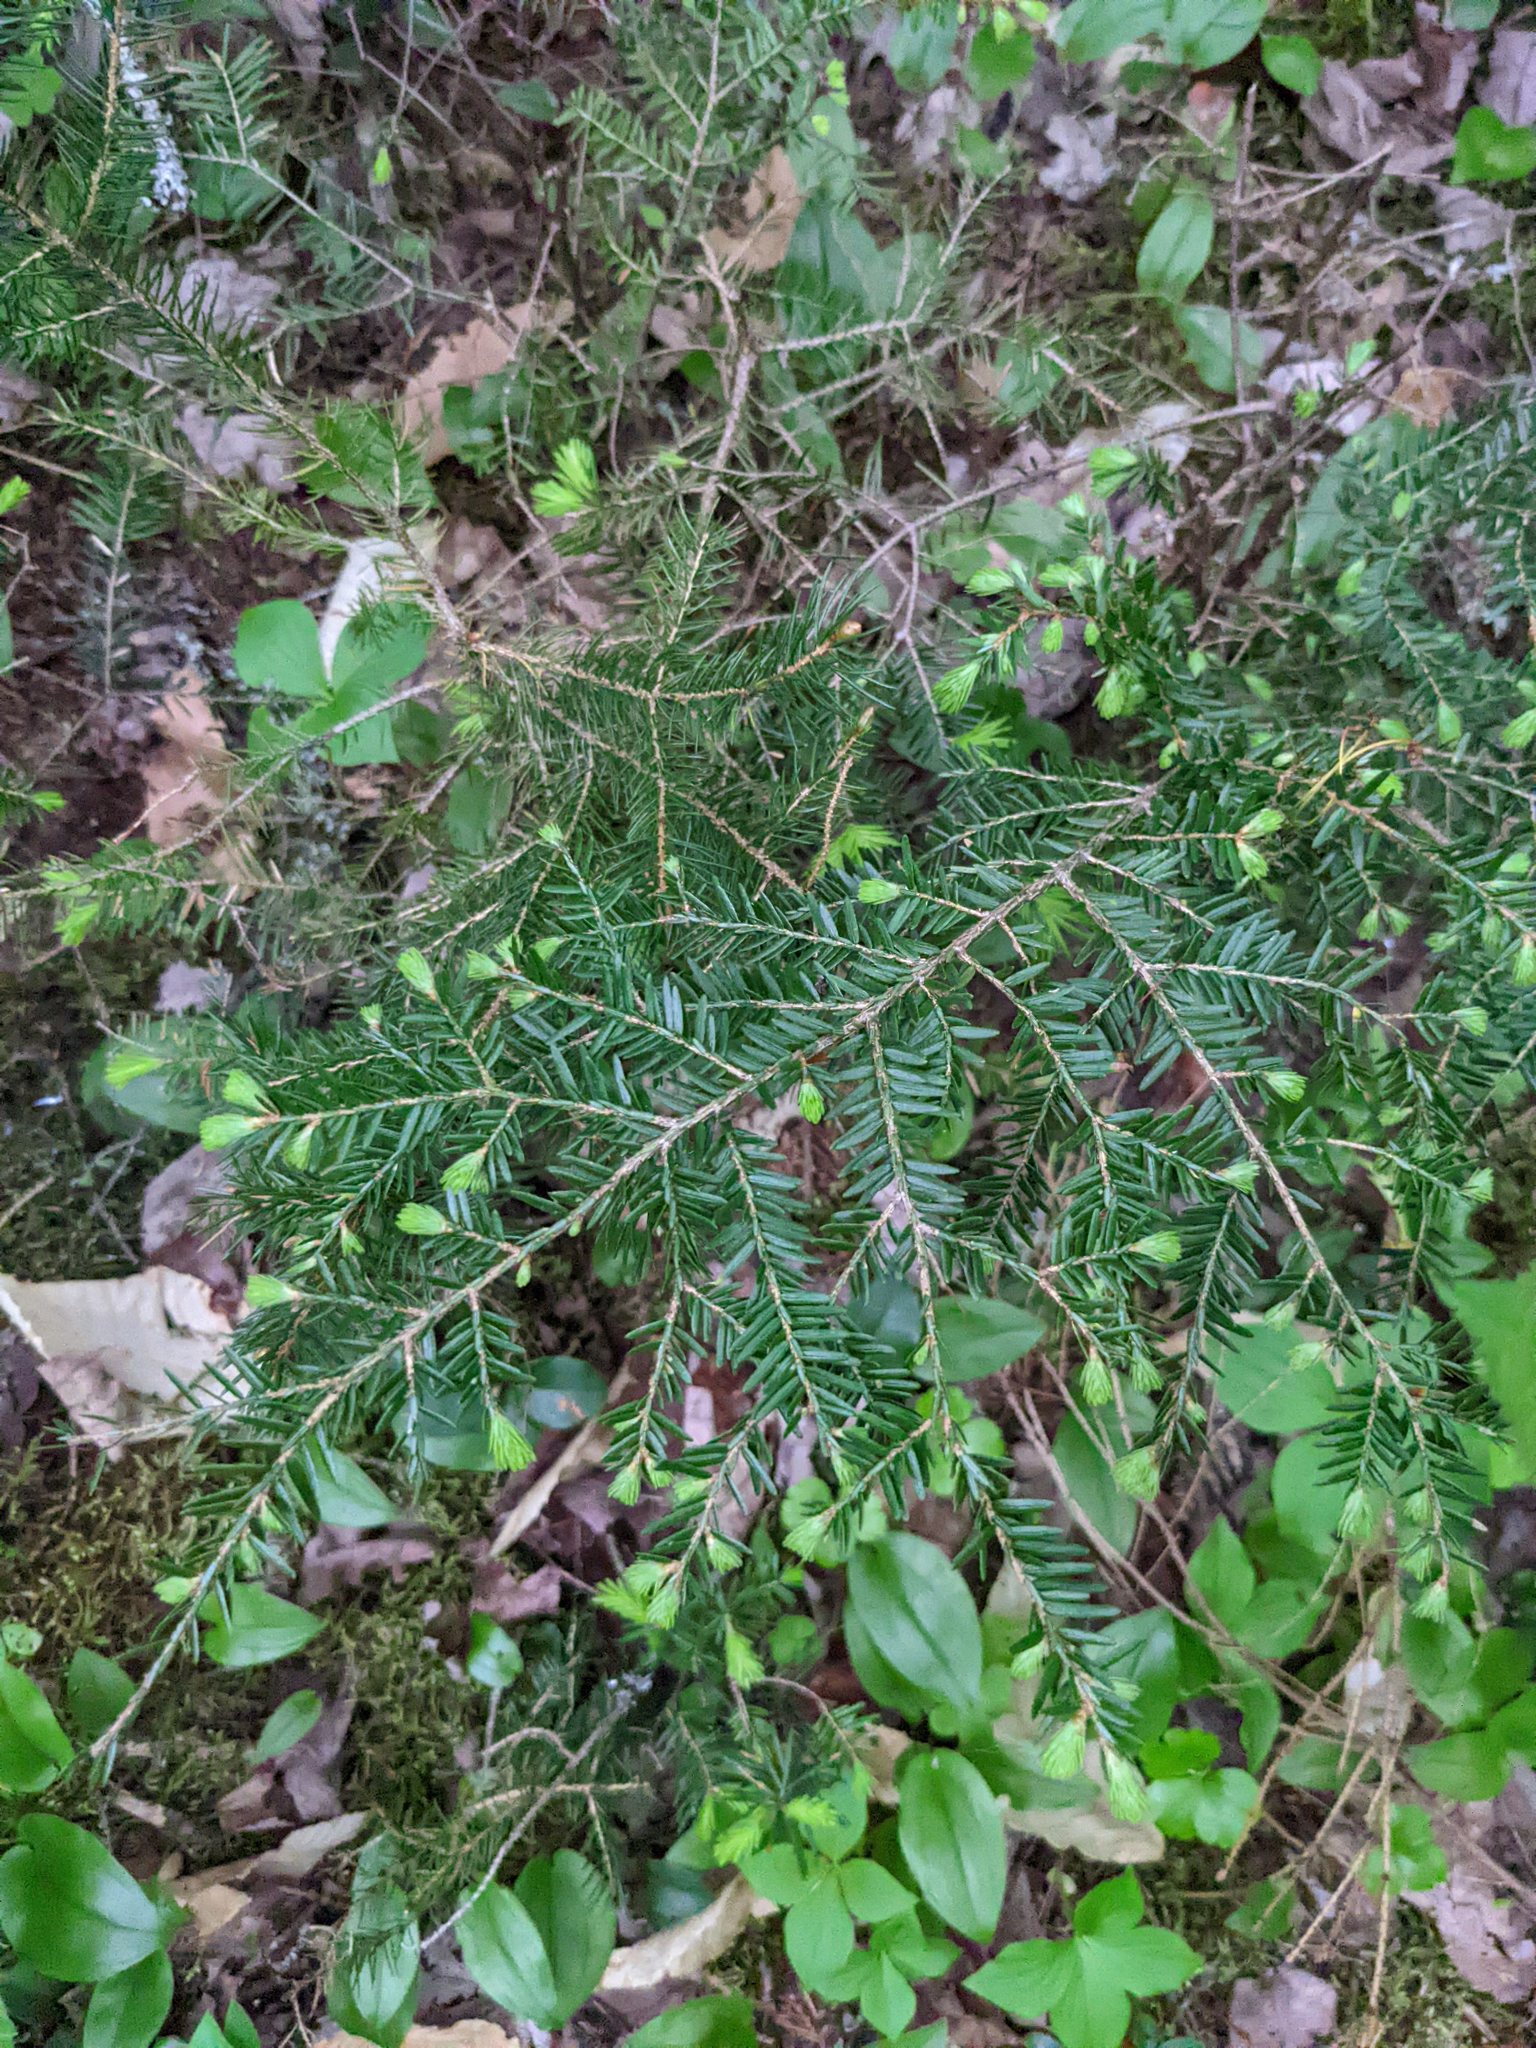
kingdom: Plantae
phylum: Tracheophyta
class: Pinopsida
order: Pinales
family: Pinaceae
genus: Tsuga
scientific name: Tsuga canadensis
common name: Eastern hemlock
